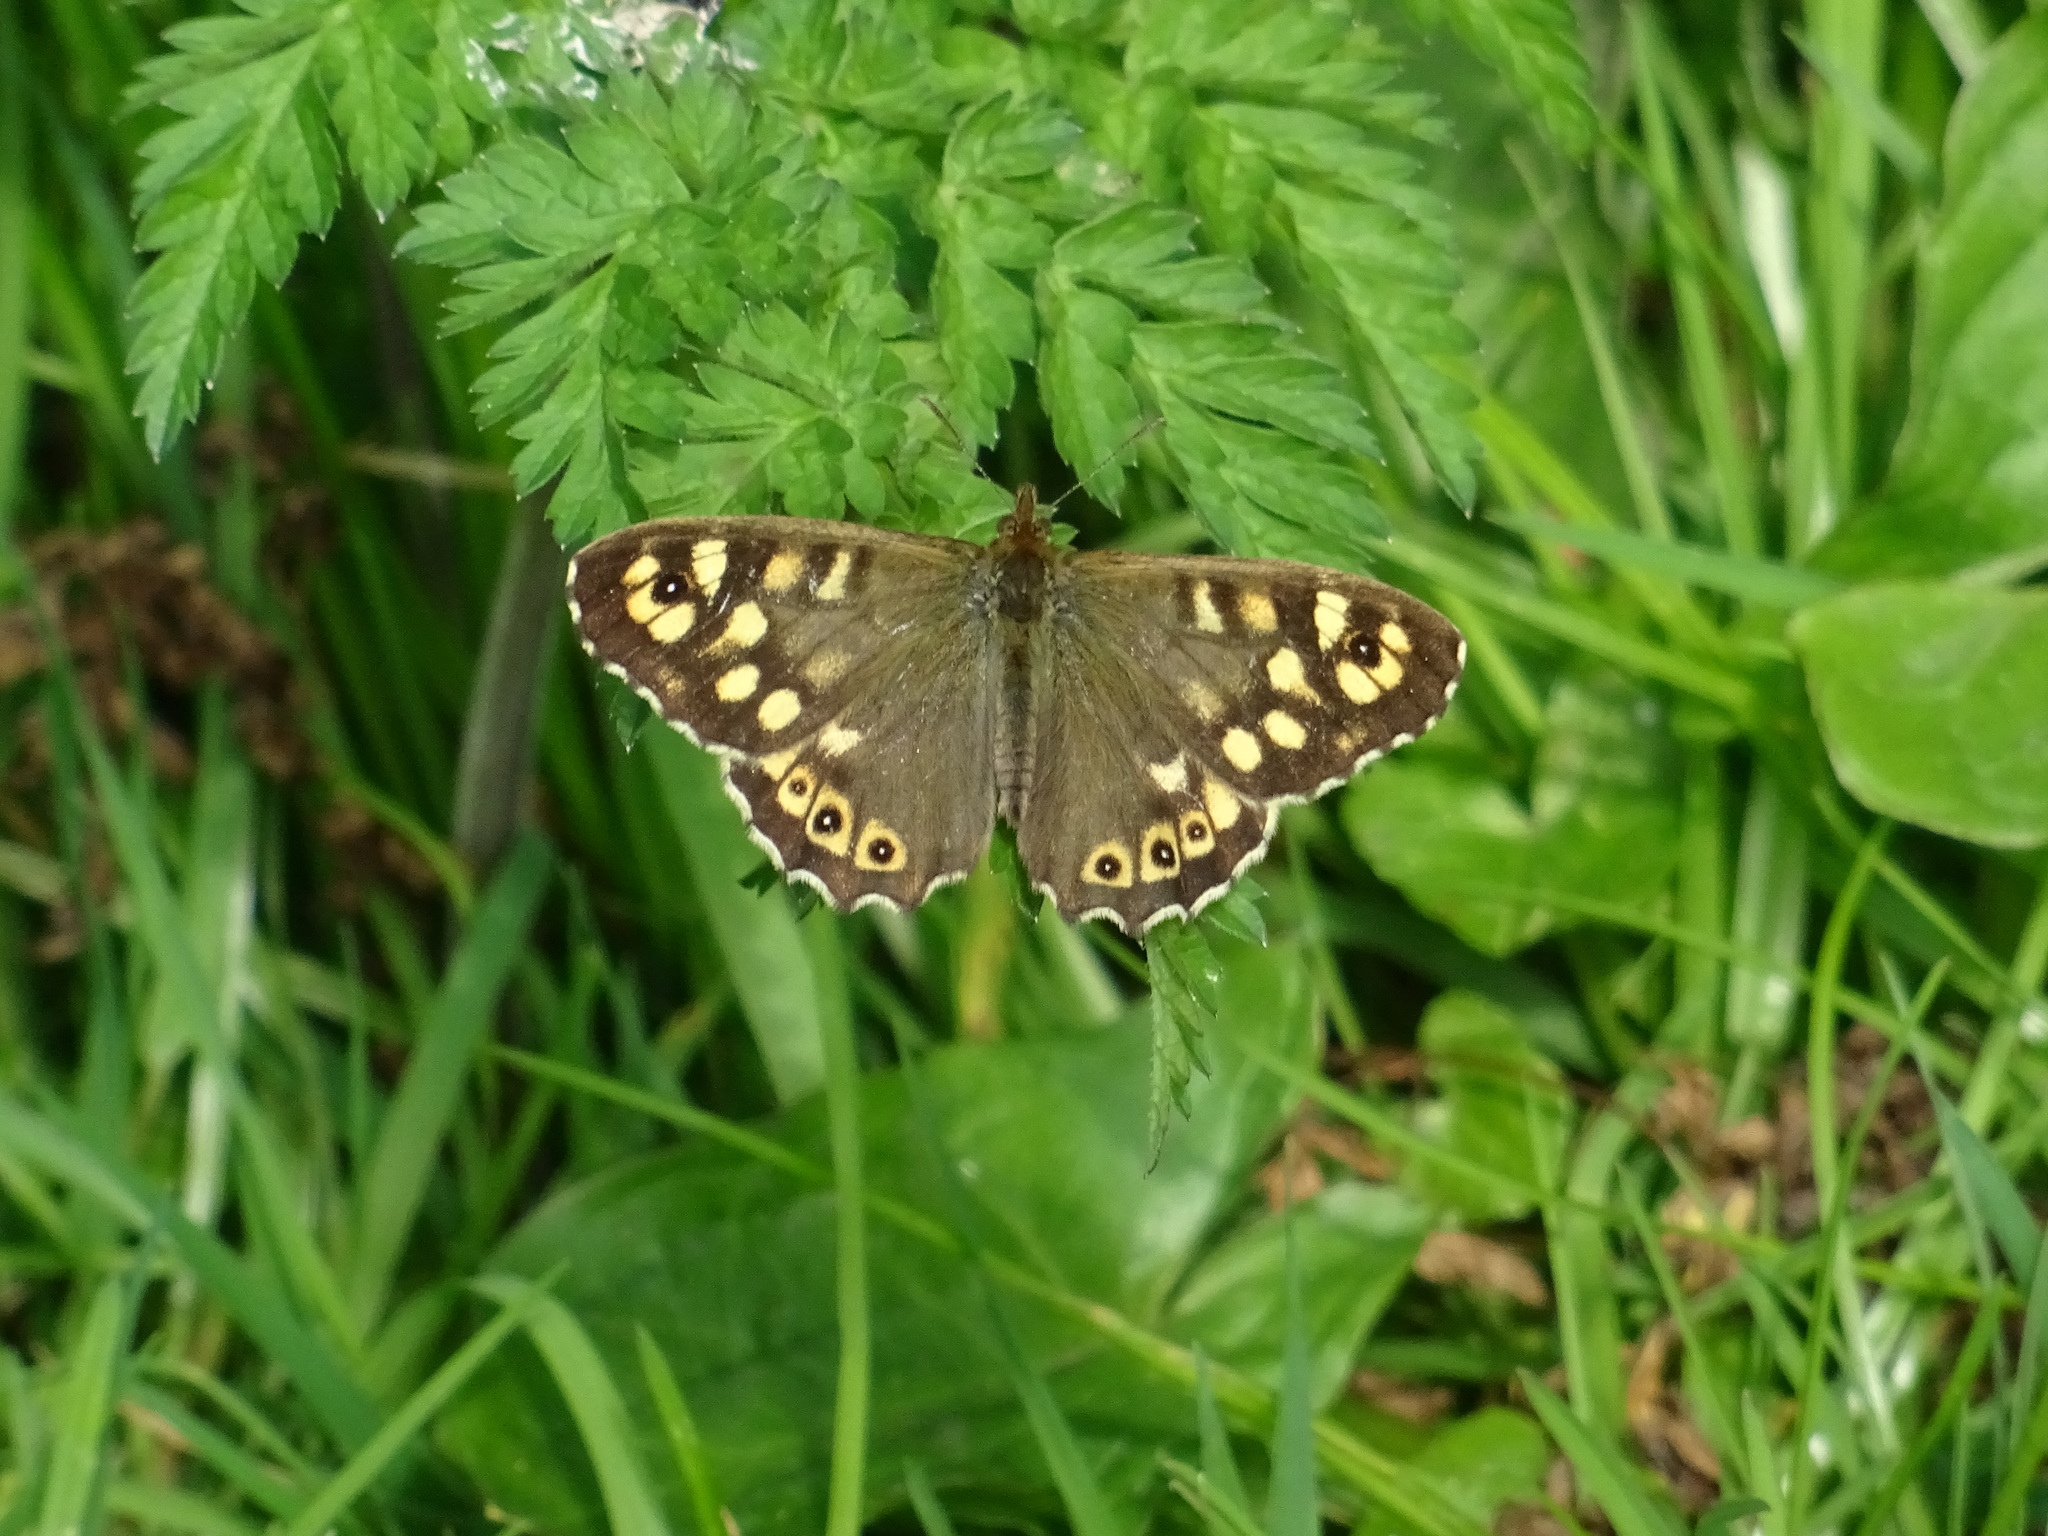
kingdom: Animalia
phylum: Arthropoda
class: Insecta
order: Lepidoptera
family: Nymphalidae
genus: Pararge
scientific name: Pararge aegeria
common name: Speckled wood
